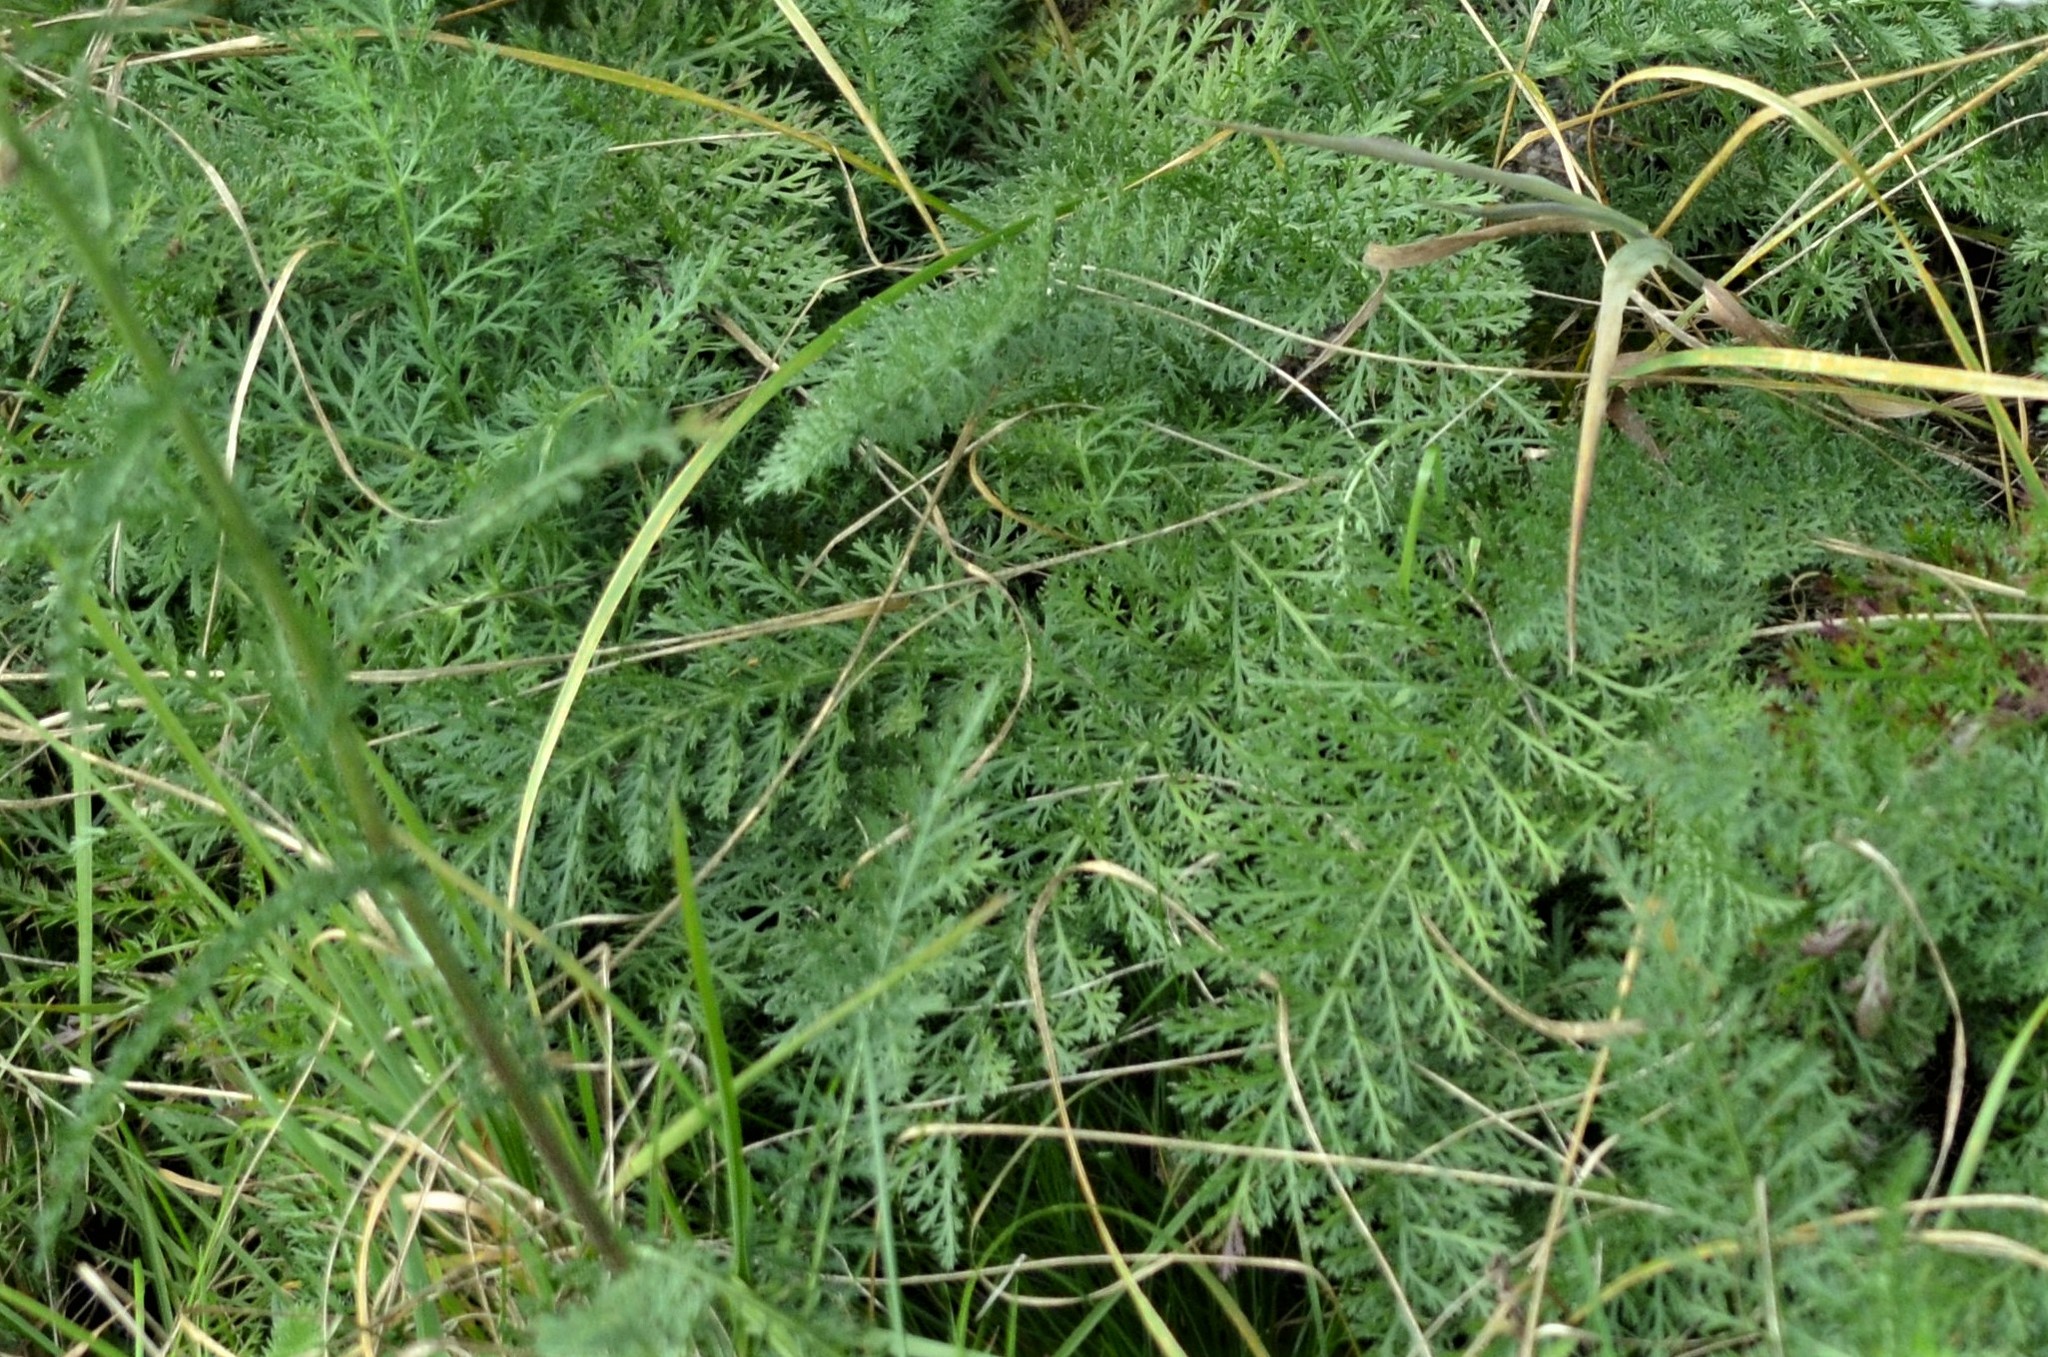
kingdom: Plantae
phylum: Tracheophyta
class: Magnoliopsida
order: Asterales
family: Asteraceae
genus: Achillea
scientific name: Achillea millefolium
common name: Yarrow
